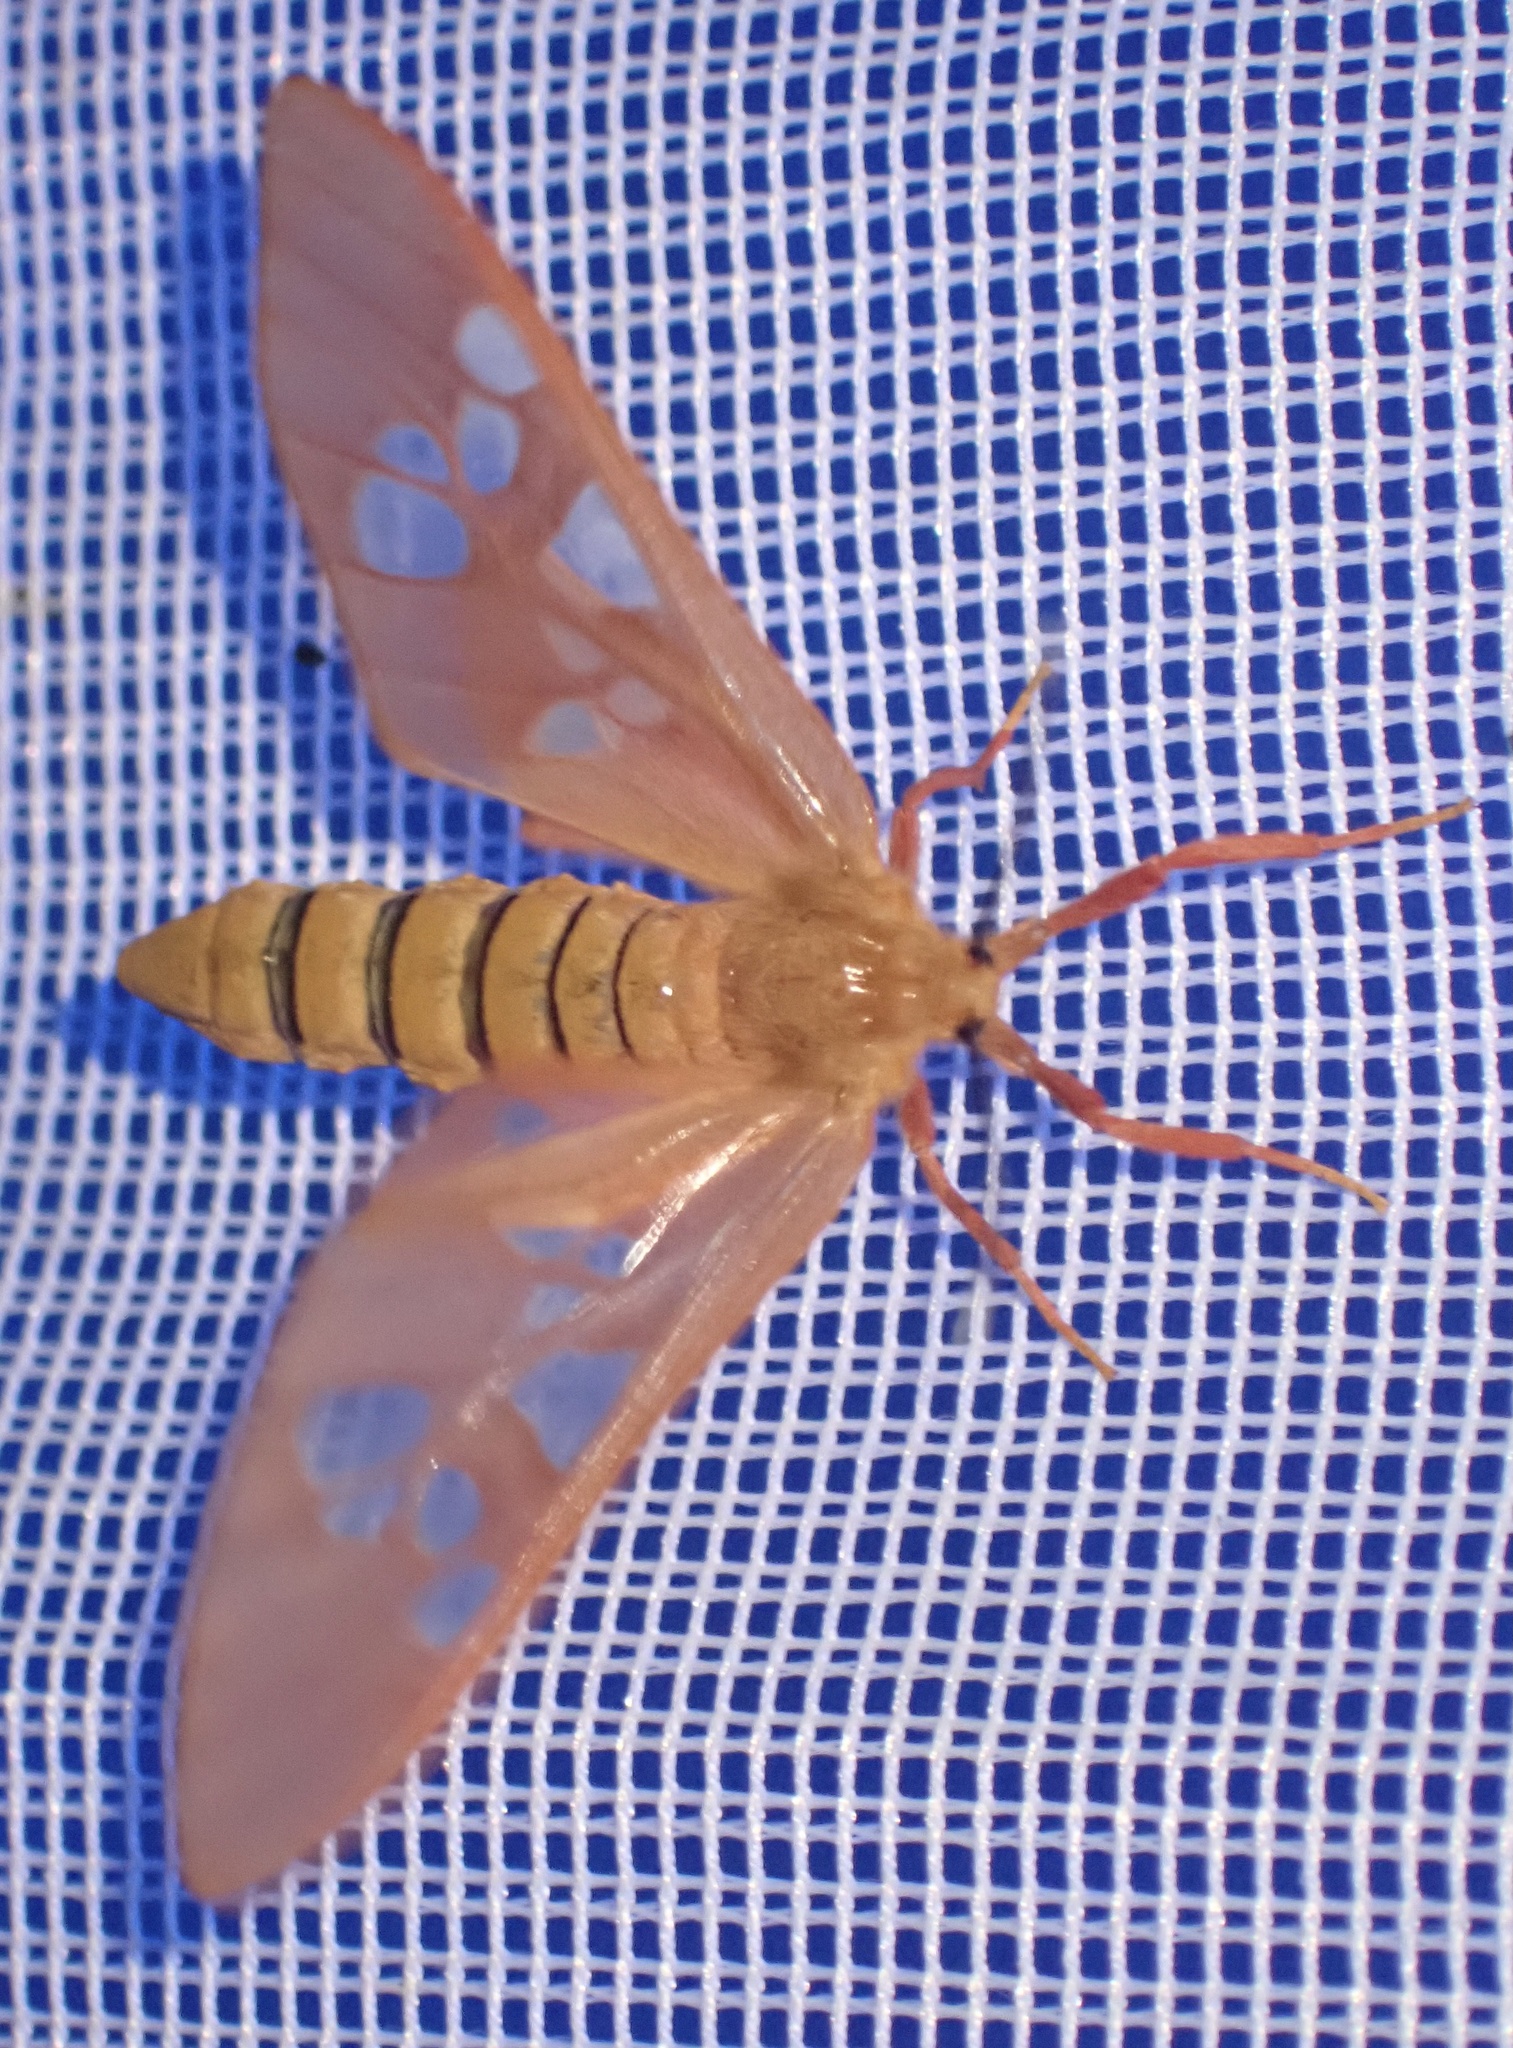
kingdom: Animalia
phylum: Arthropoda
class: Insecta
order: Lepidoptera
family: Erebidae
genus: Pseudothyretes
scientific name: Pseudothyretes carnea
